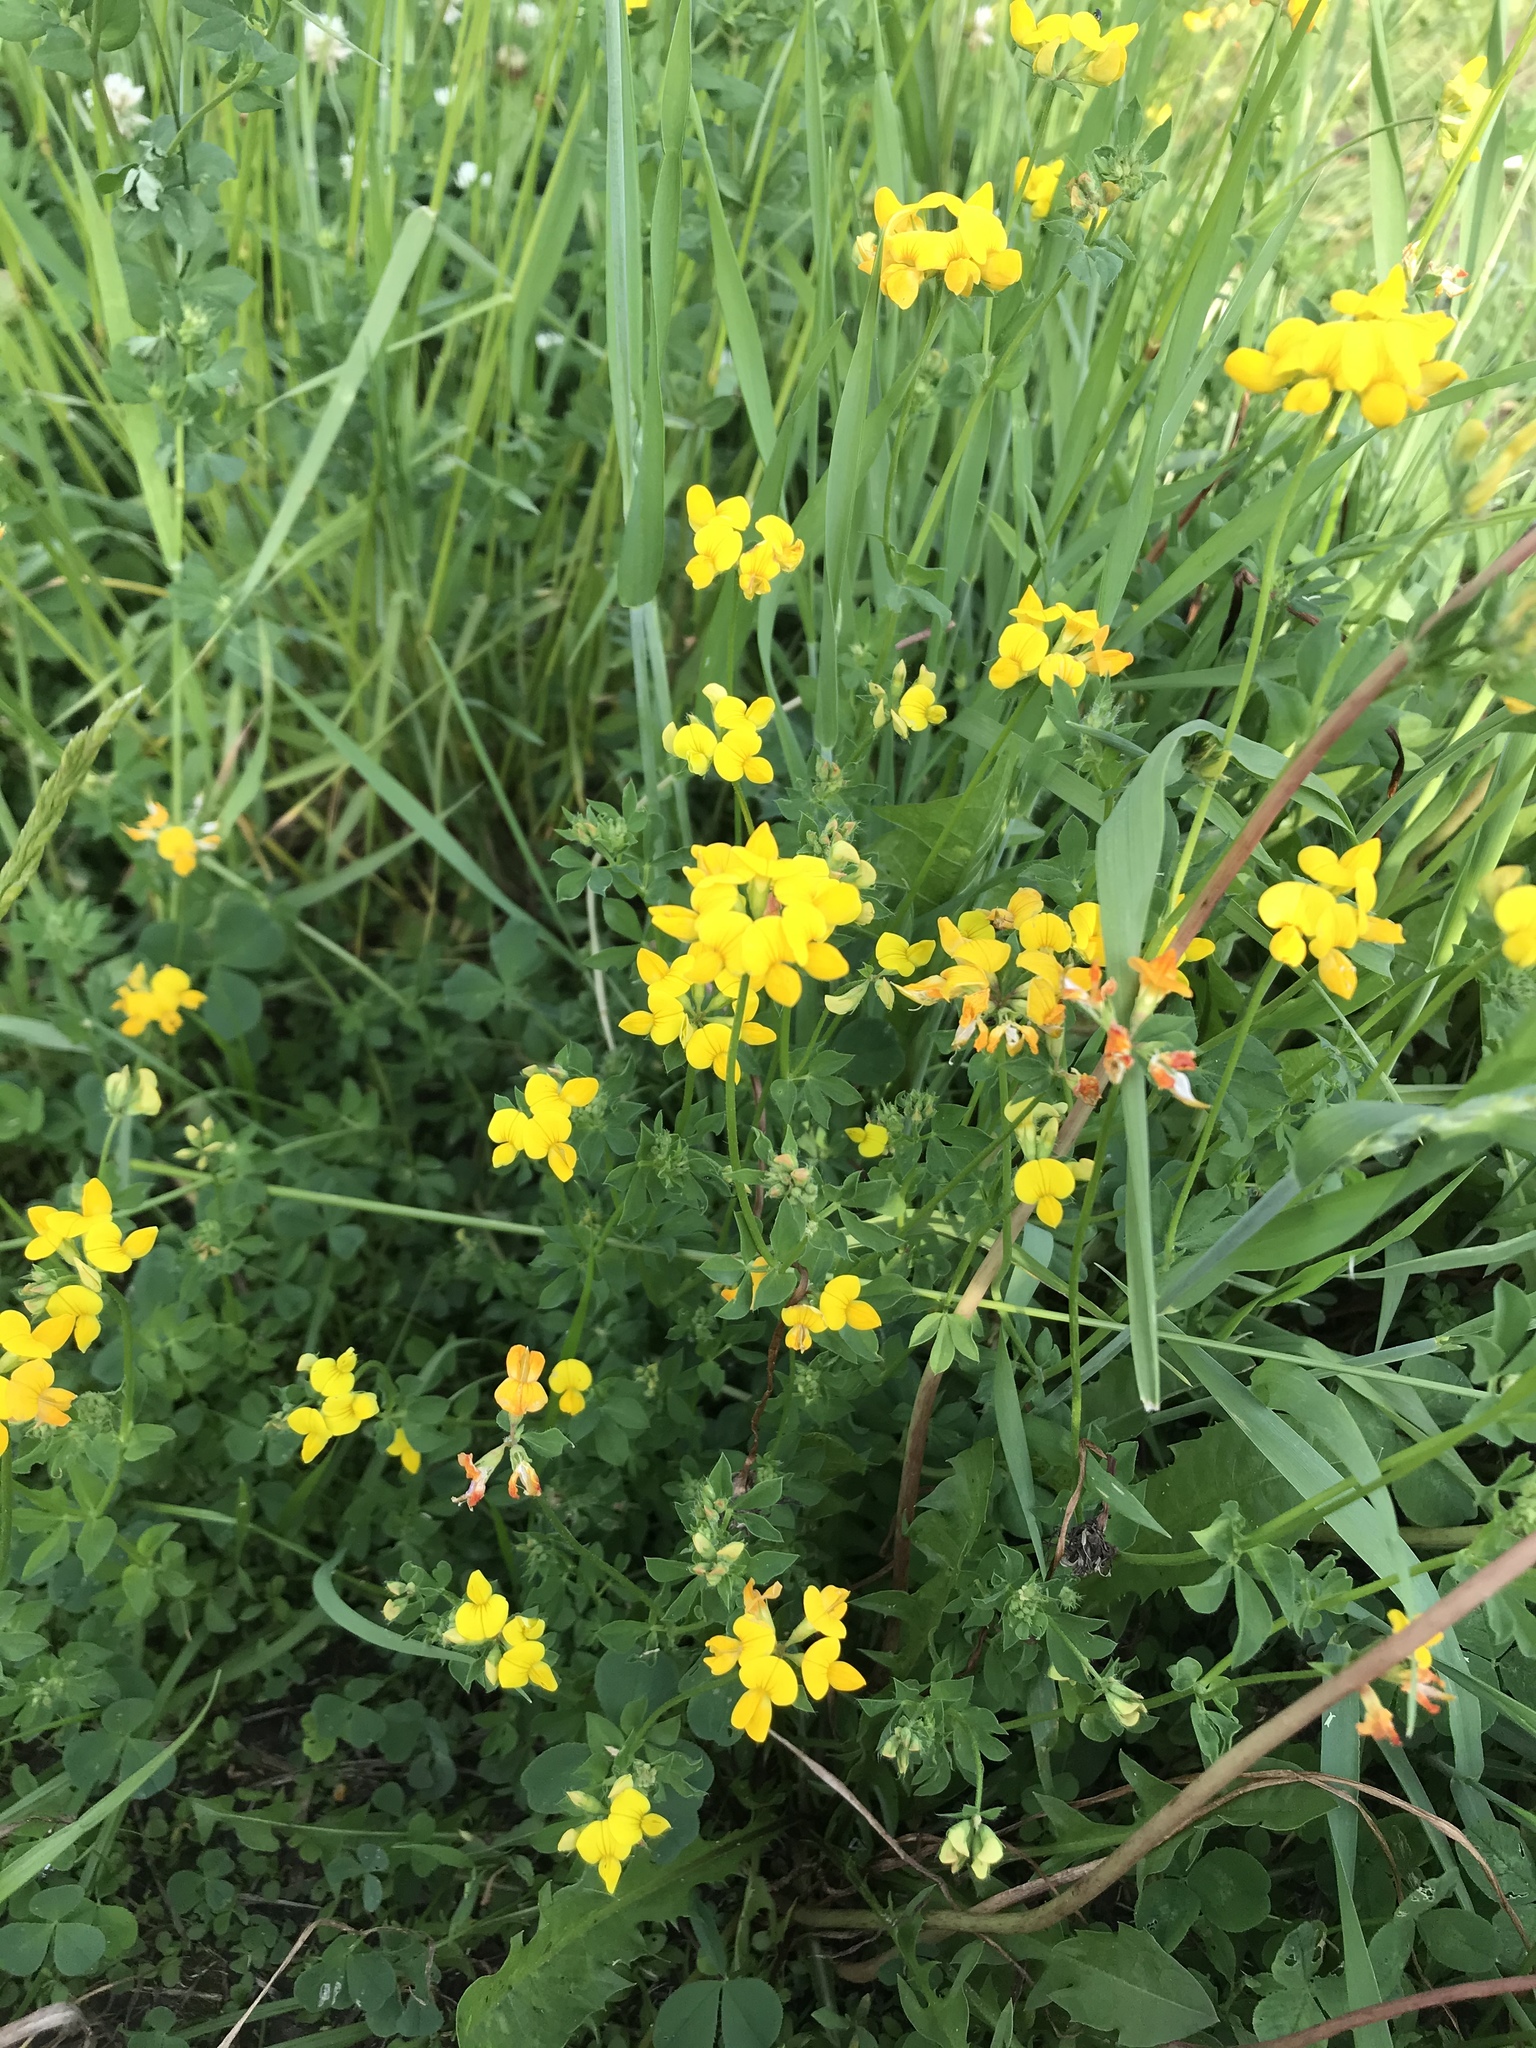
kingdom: Plantae
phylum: Tracheophyta
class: Magnoliopsida
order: Fabales
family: Fabaceae
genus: Lotus
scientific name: Lotus corniculatus
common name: Common bird's-foot-trefoil
